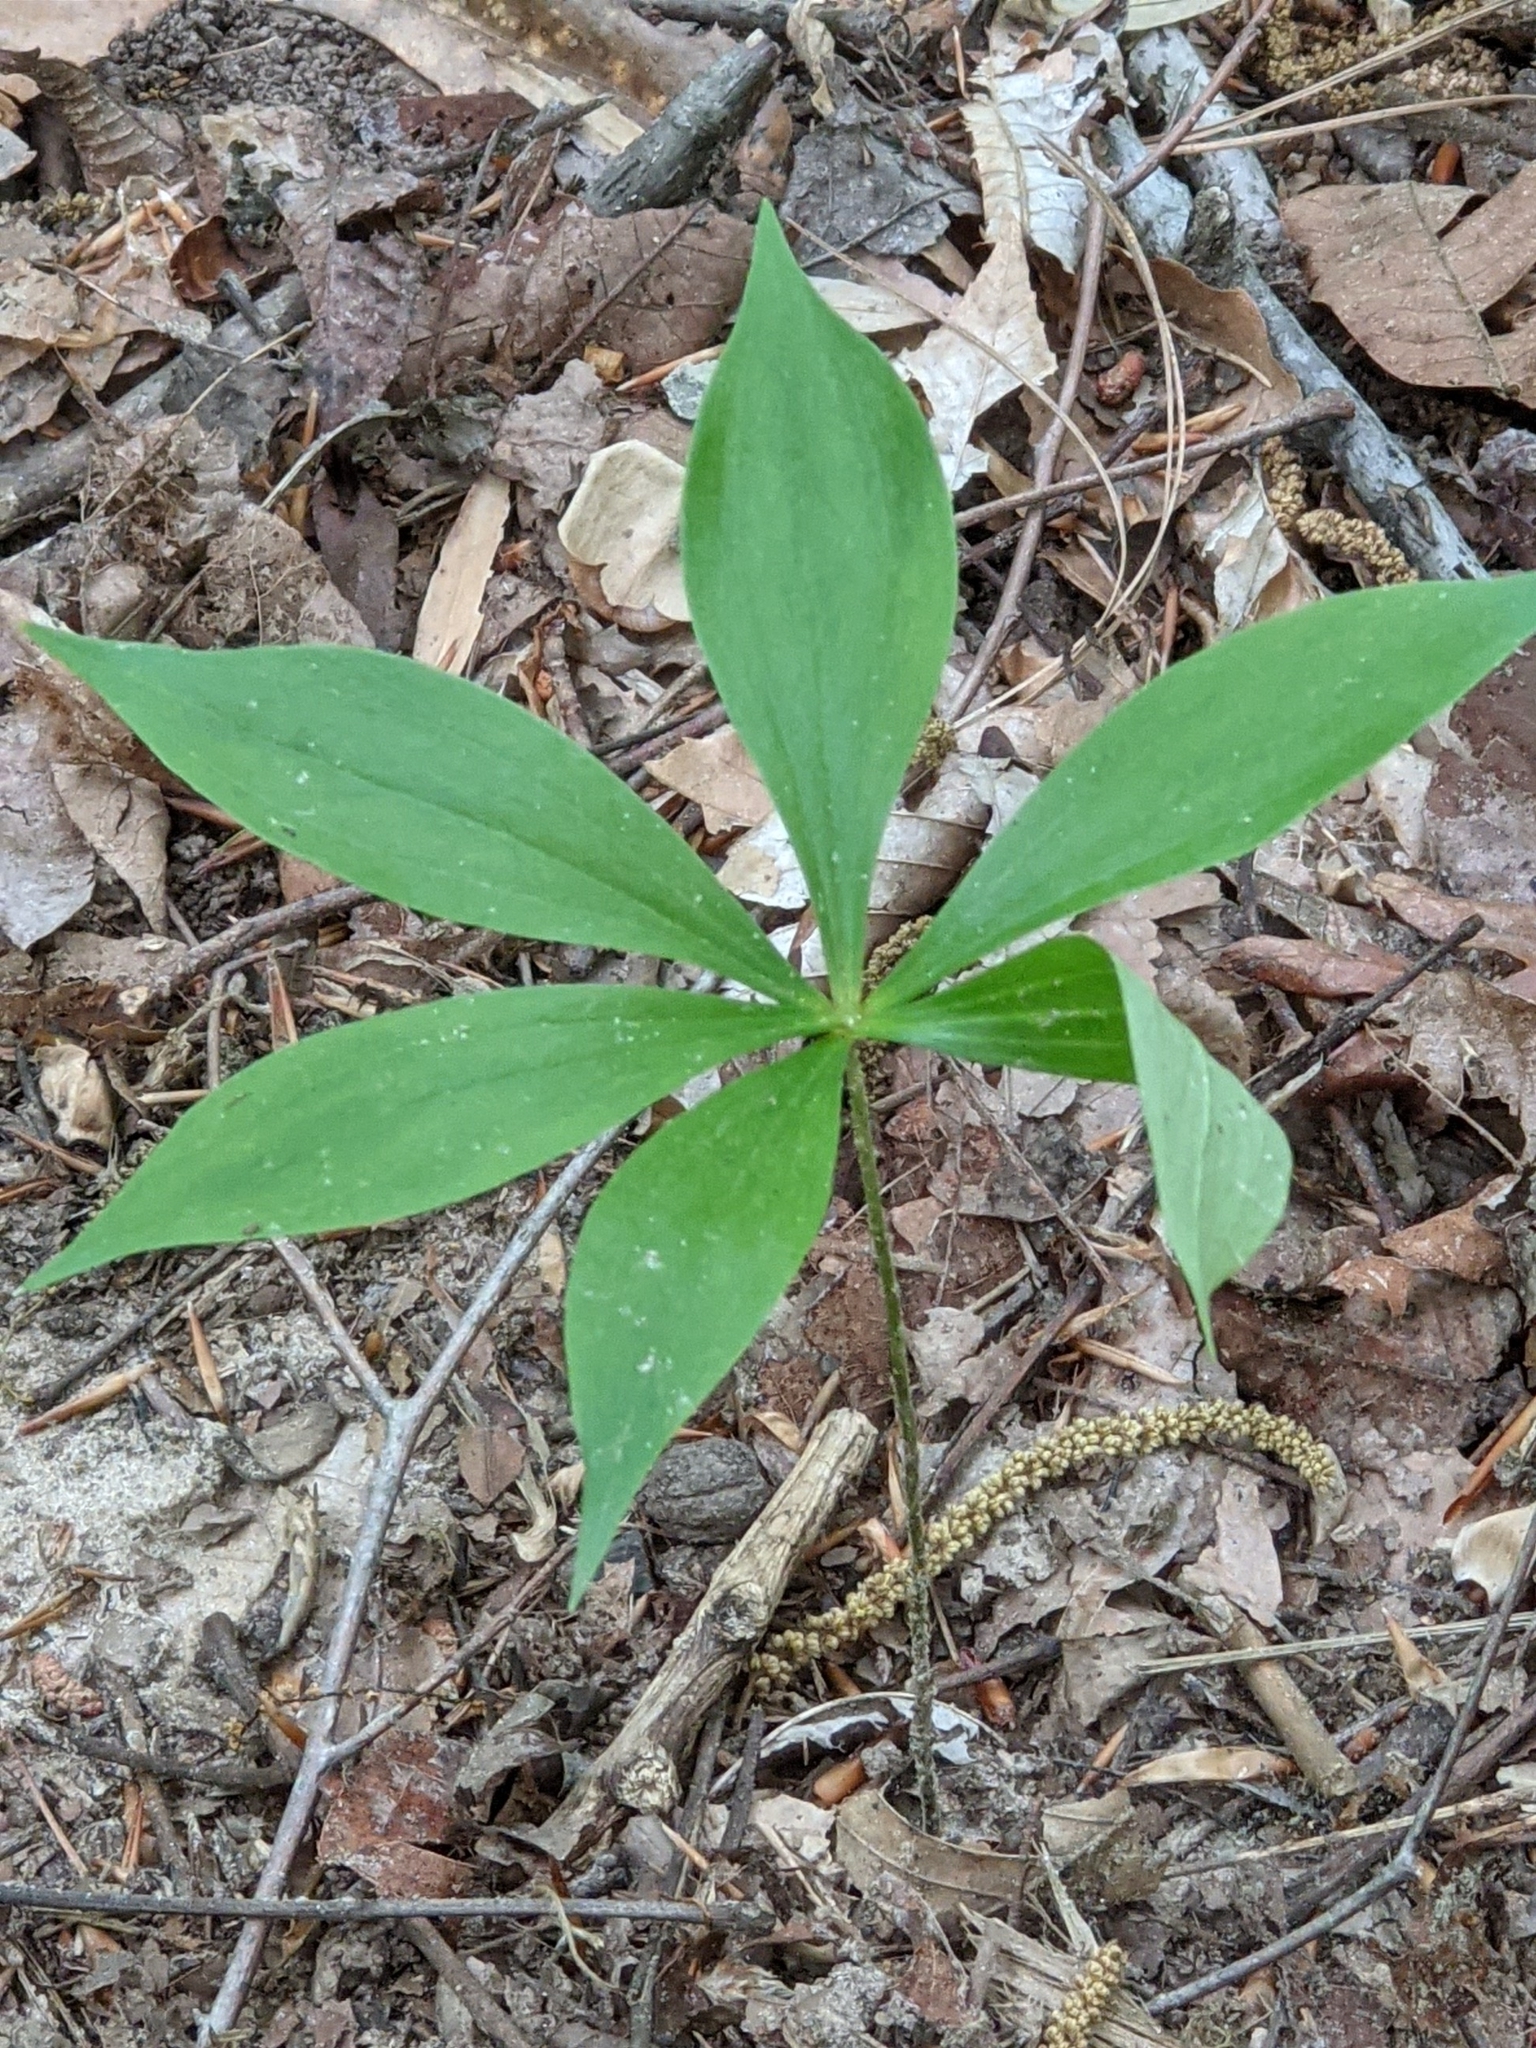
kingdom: Plantae
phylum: Tracheophyta
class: Liliopsida
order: Liliales
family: Liliaceae
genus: Medeola
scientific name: Medeola virginiana
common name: Indian cucumber-root
